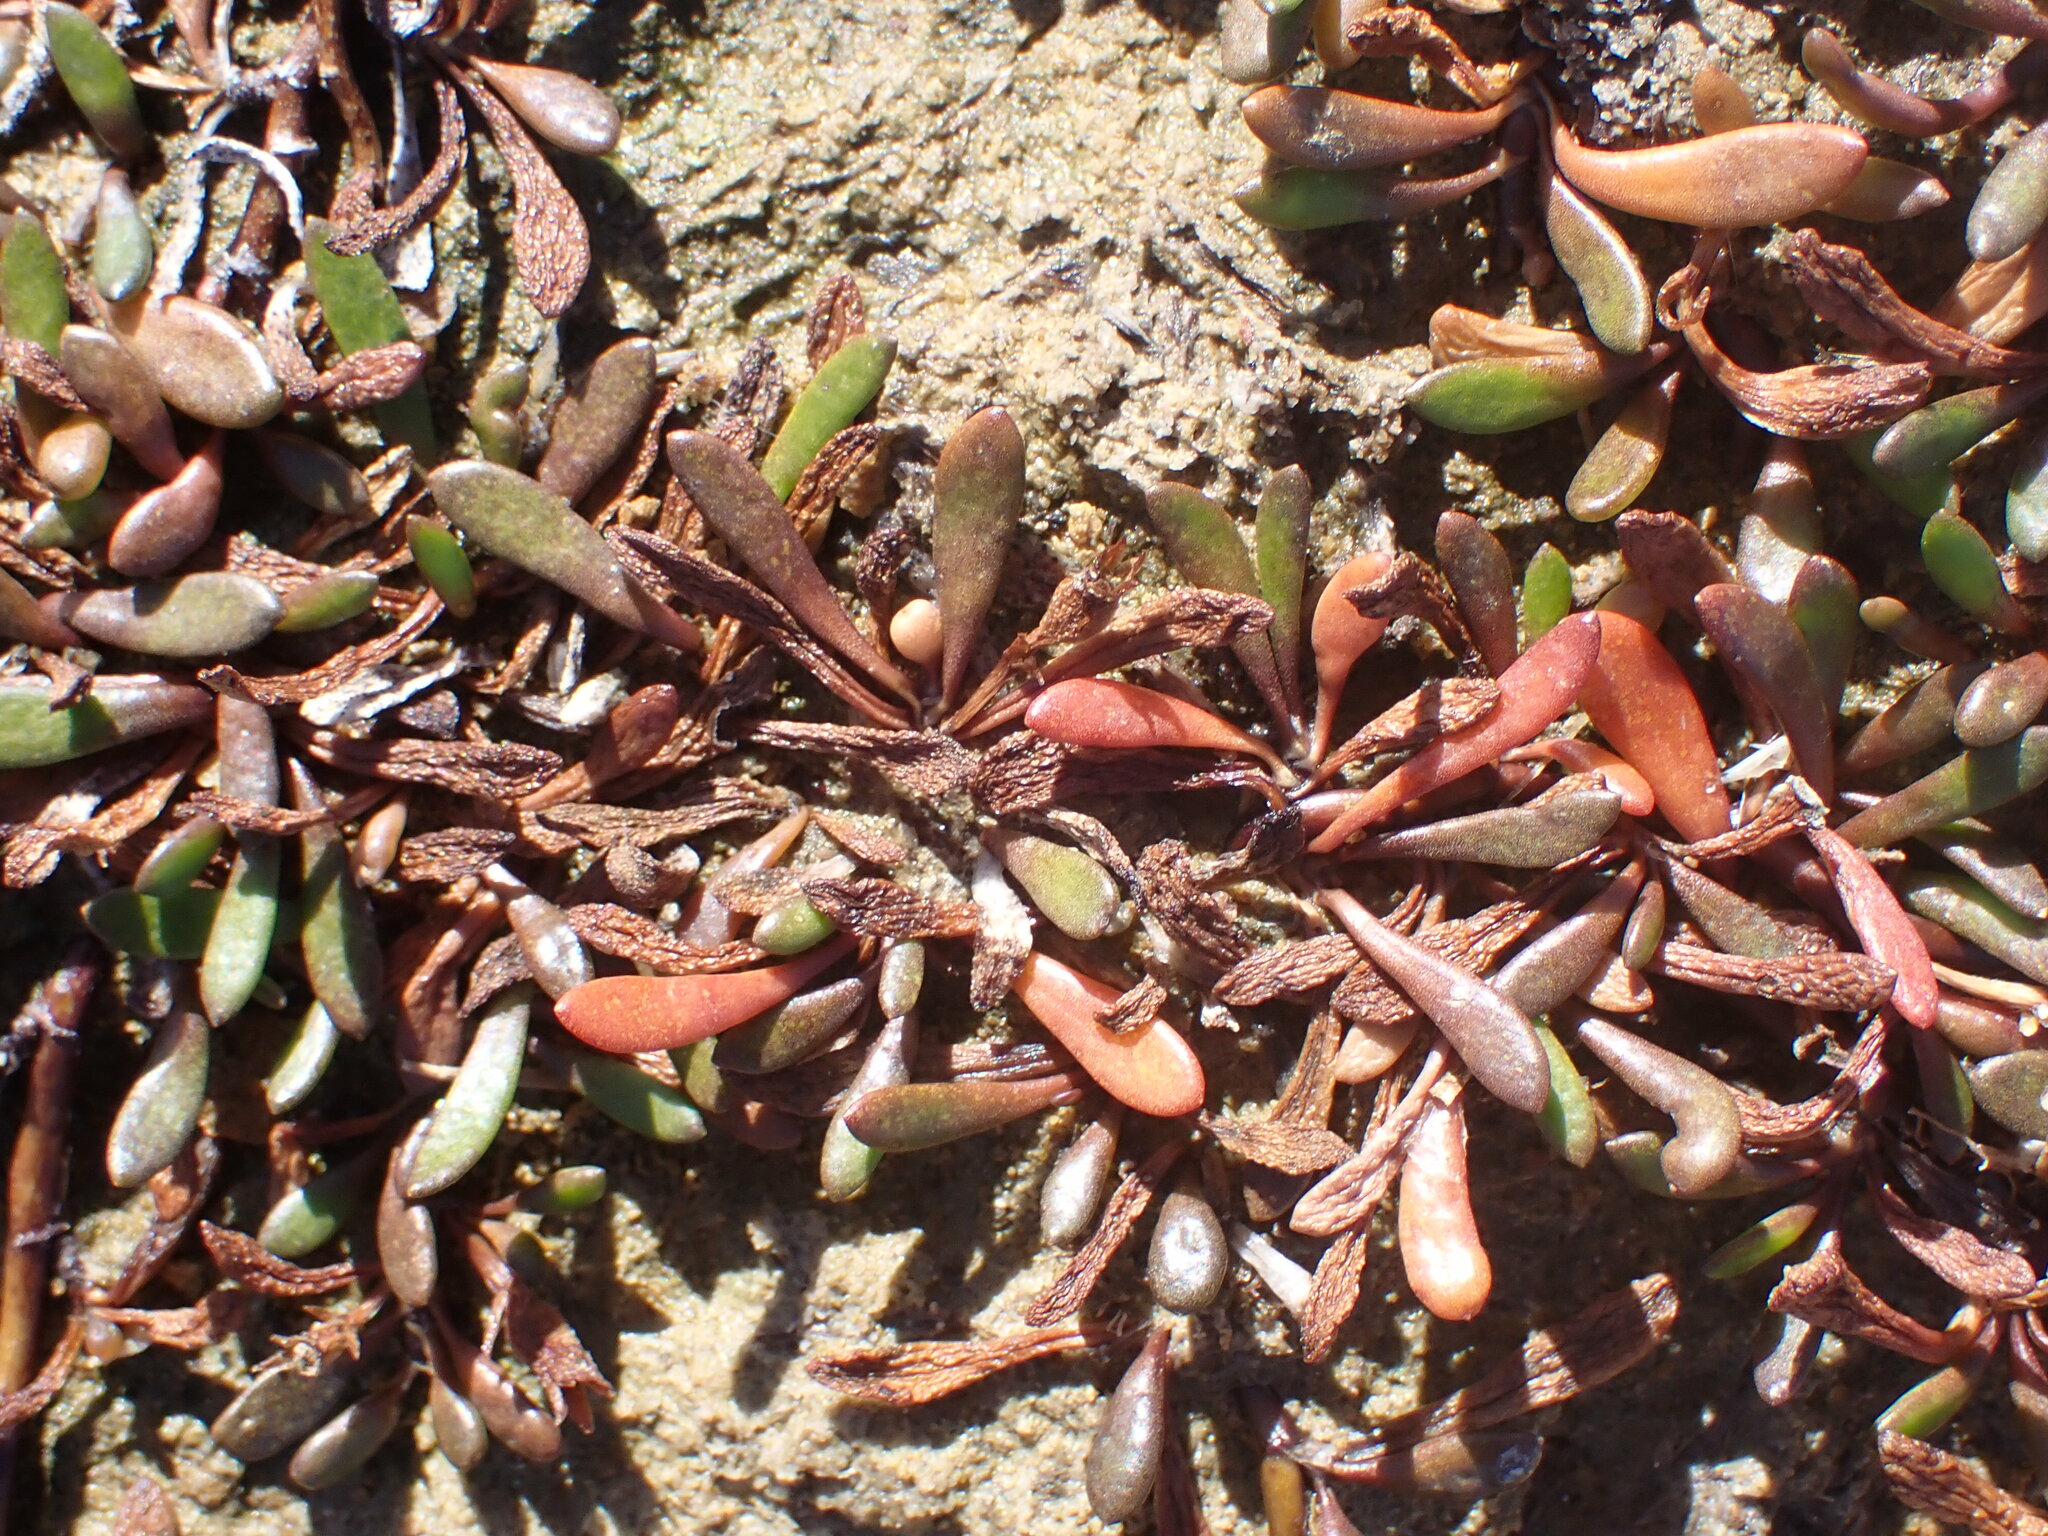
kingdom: Plantae
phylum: Tracheophyta
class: Magnoliopsida
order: Asterales
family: Goodeniaceae
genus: Goodenia
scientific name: Goodenia radicans
